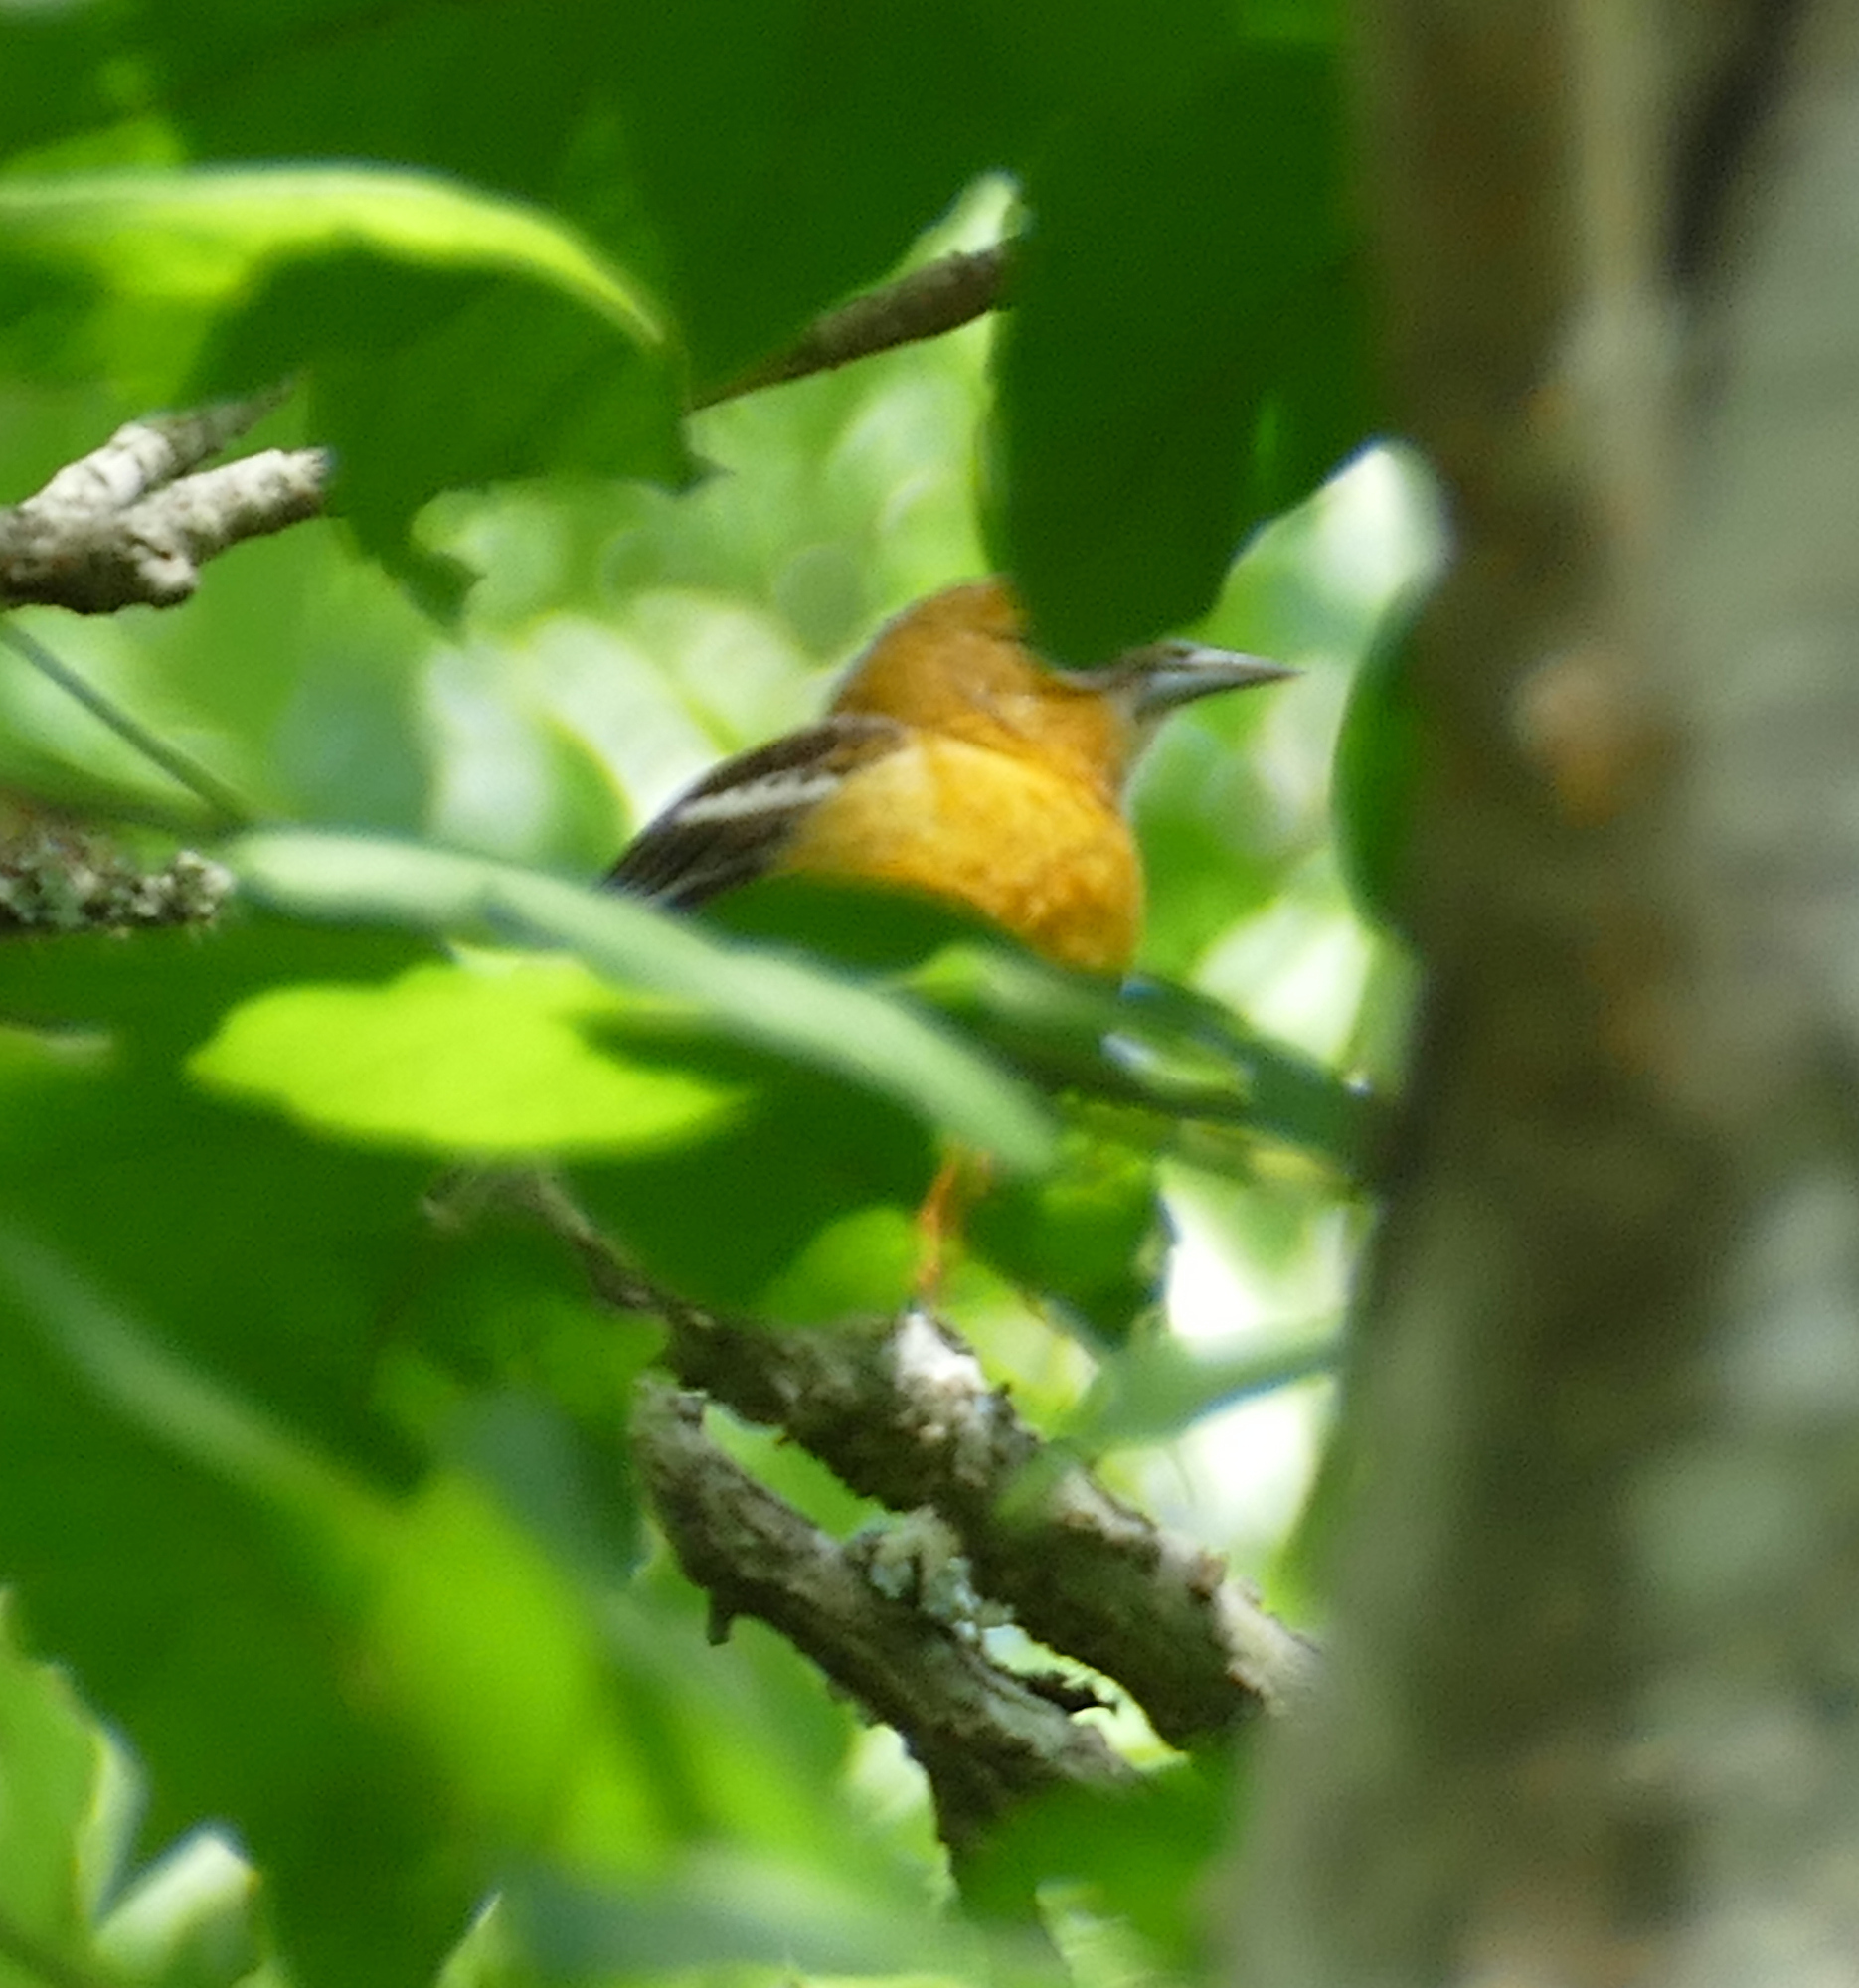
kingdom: Animalia
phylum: Chordata
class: Aves
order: Passeriformes
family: Icteridae
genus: Icterus
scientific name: Icterus galbula
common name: Baltimore oriole
